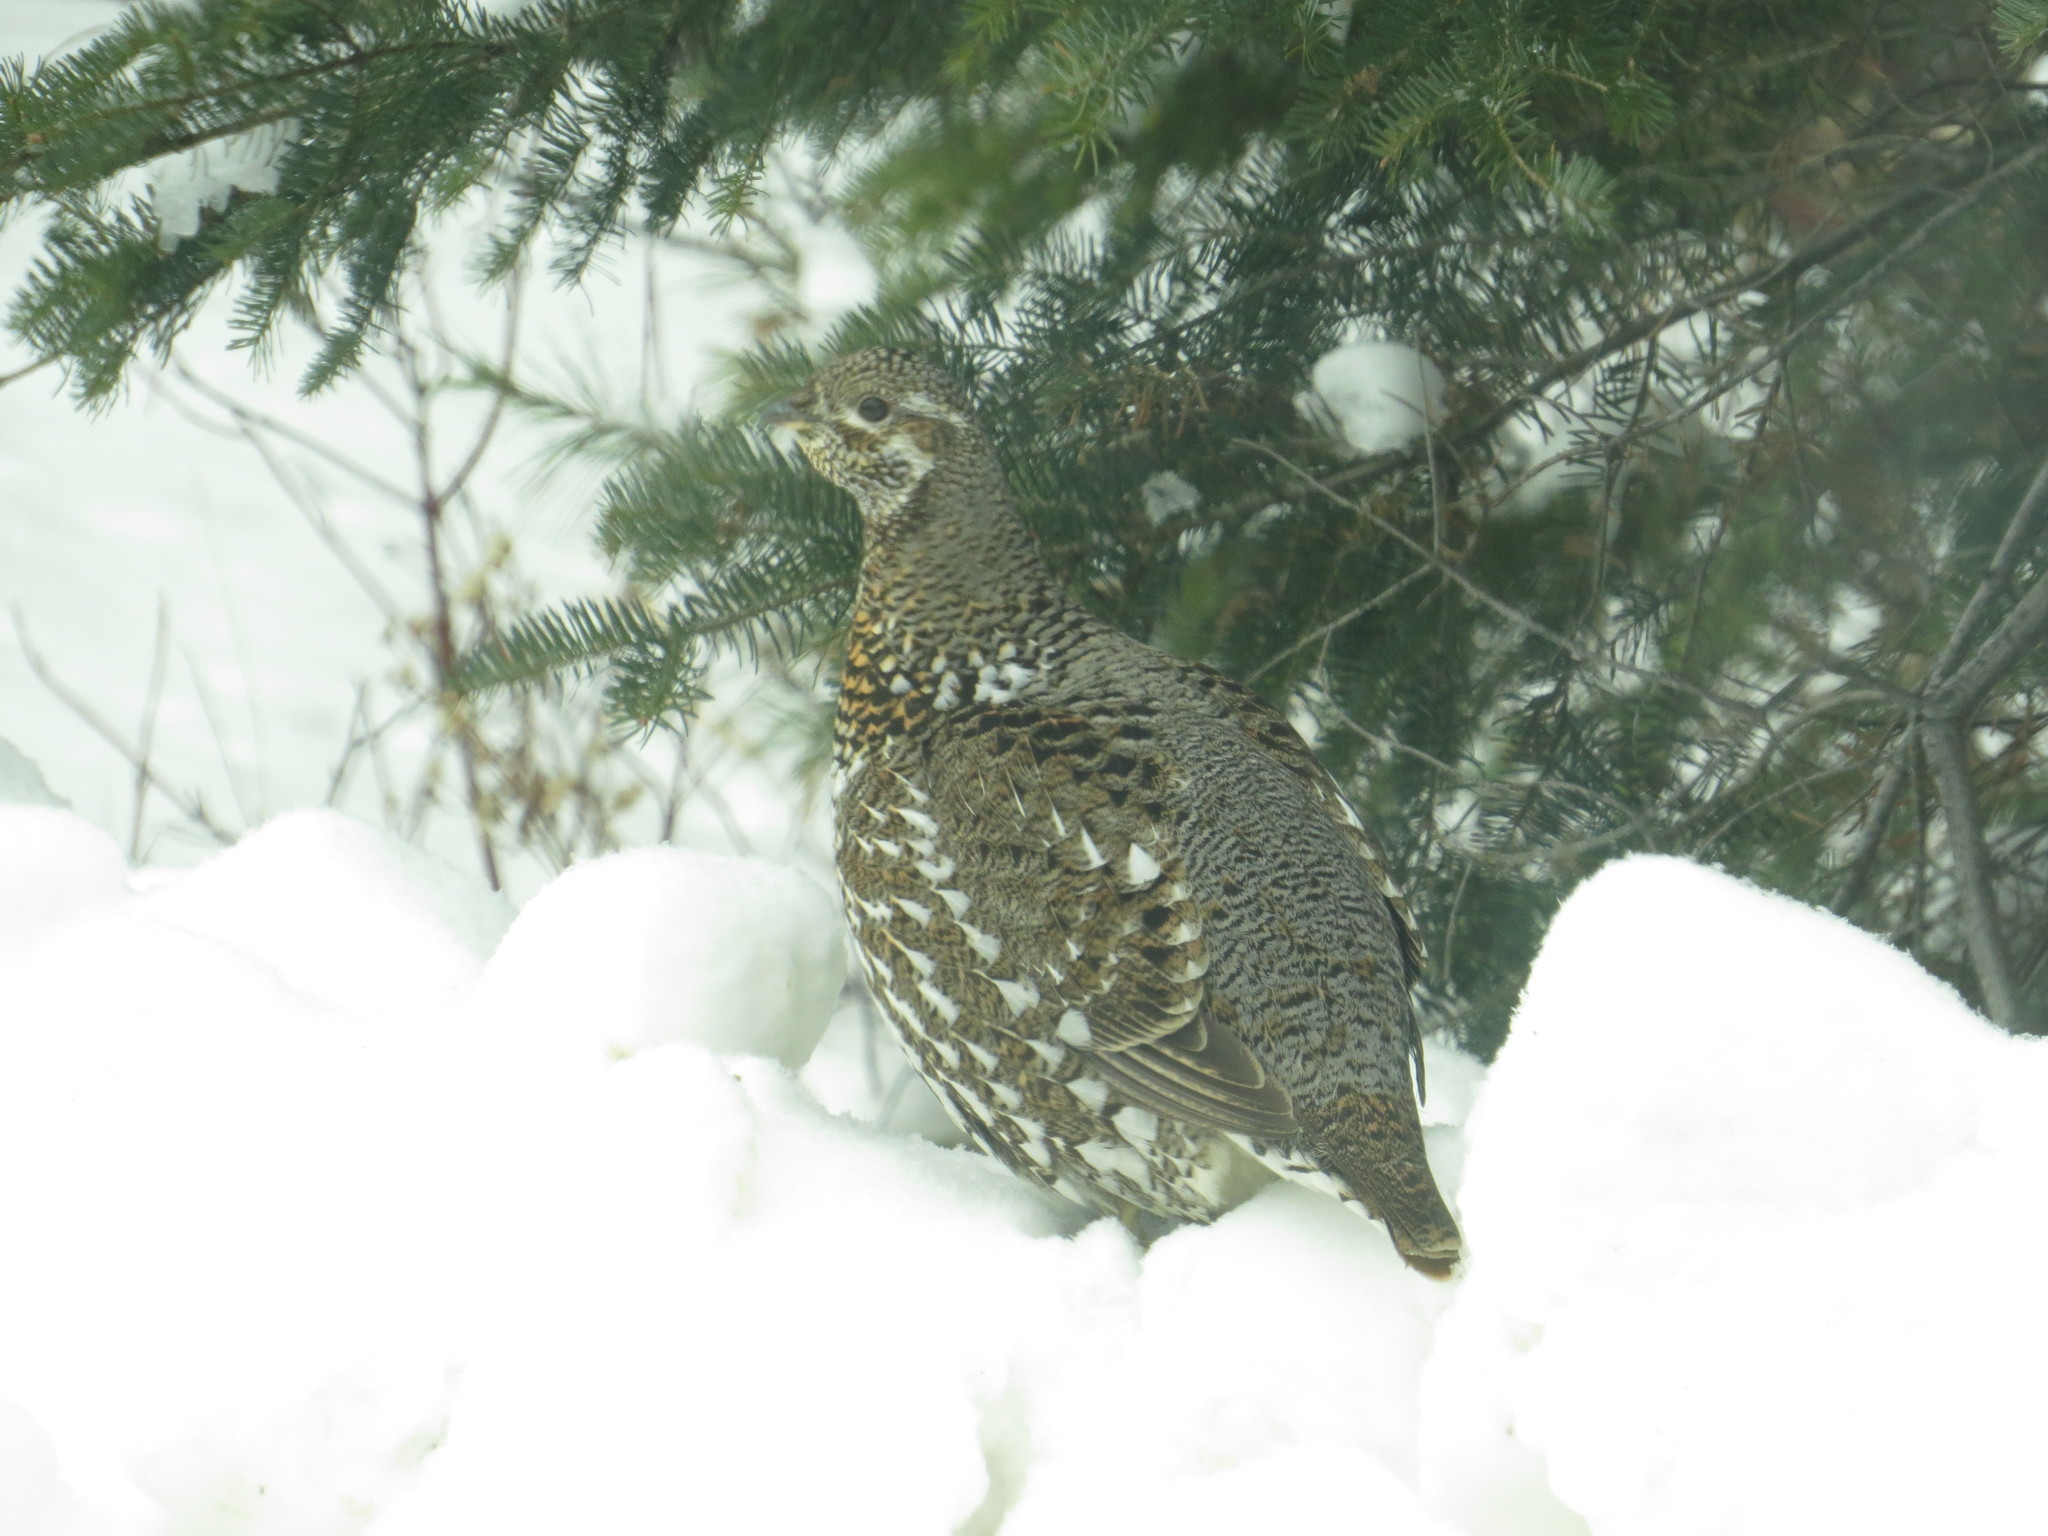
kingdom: Animalia
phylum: Chordata
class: Aves
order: Galliformes
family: Phasianidae
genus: Canachites
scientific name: Canachites canadensis
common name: Spruce grouse
